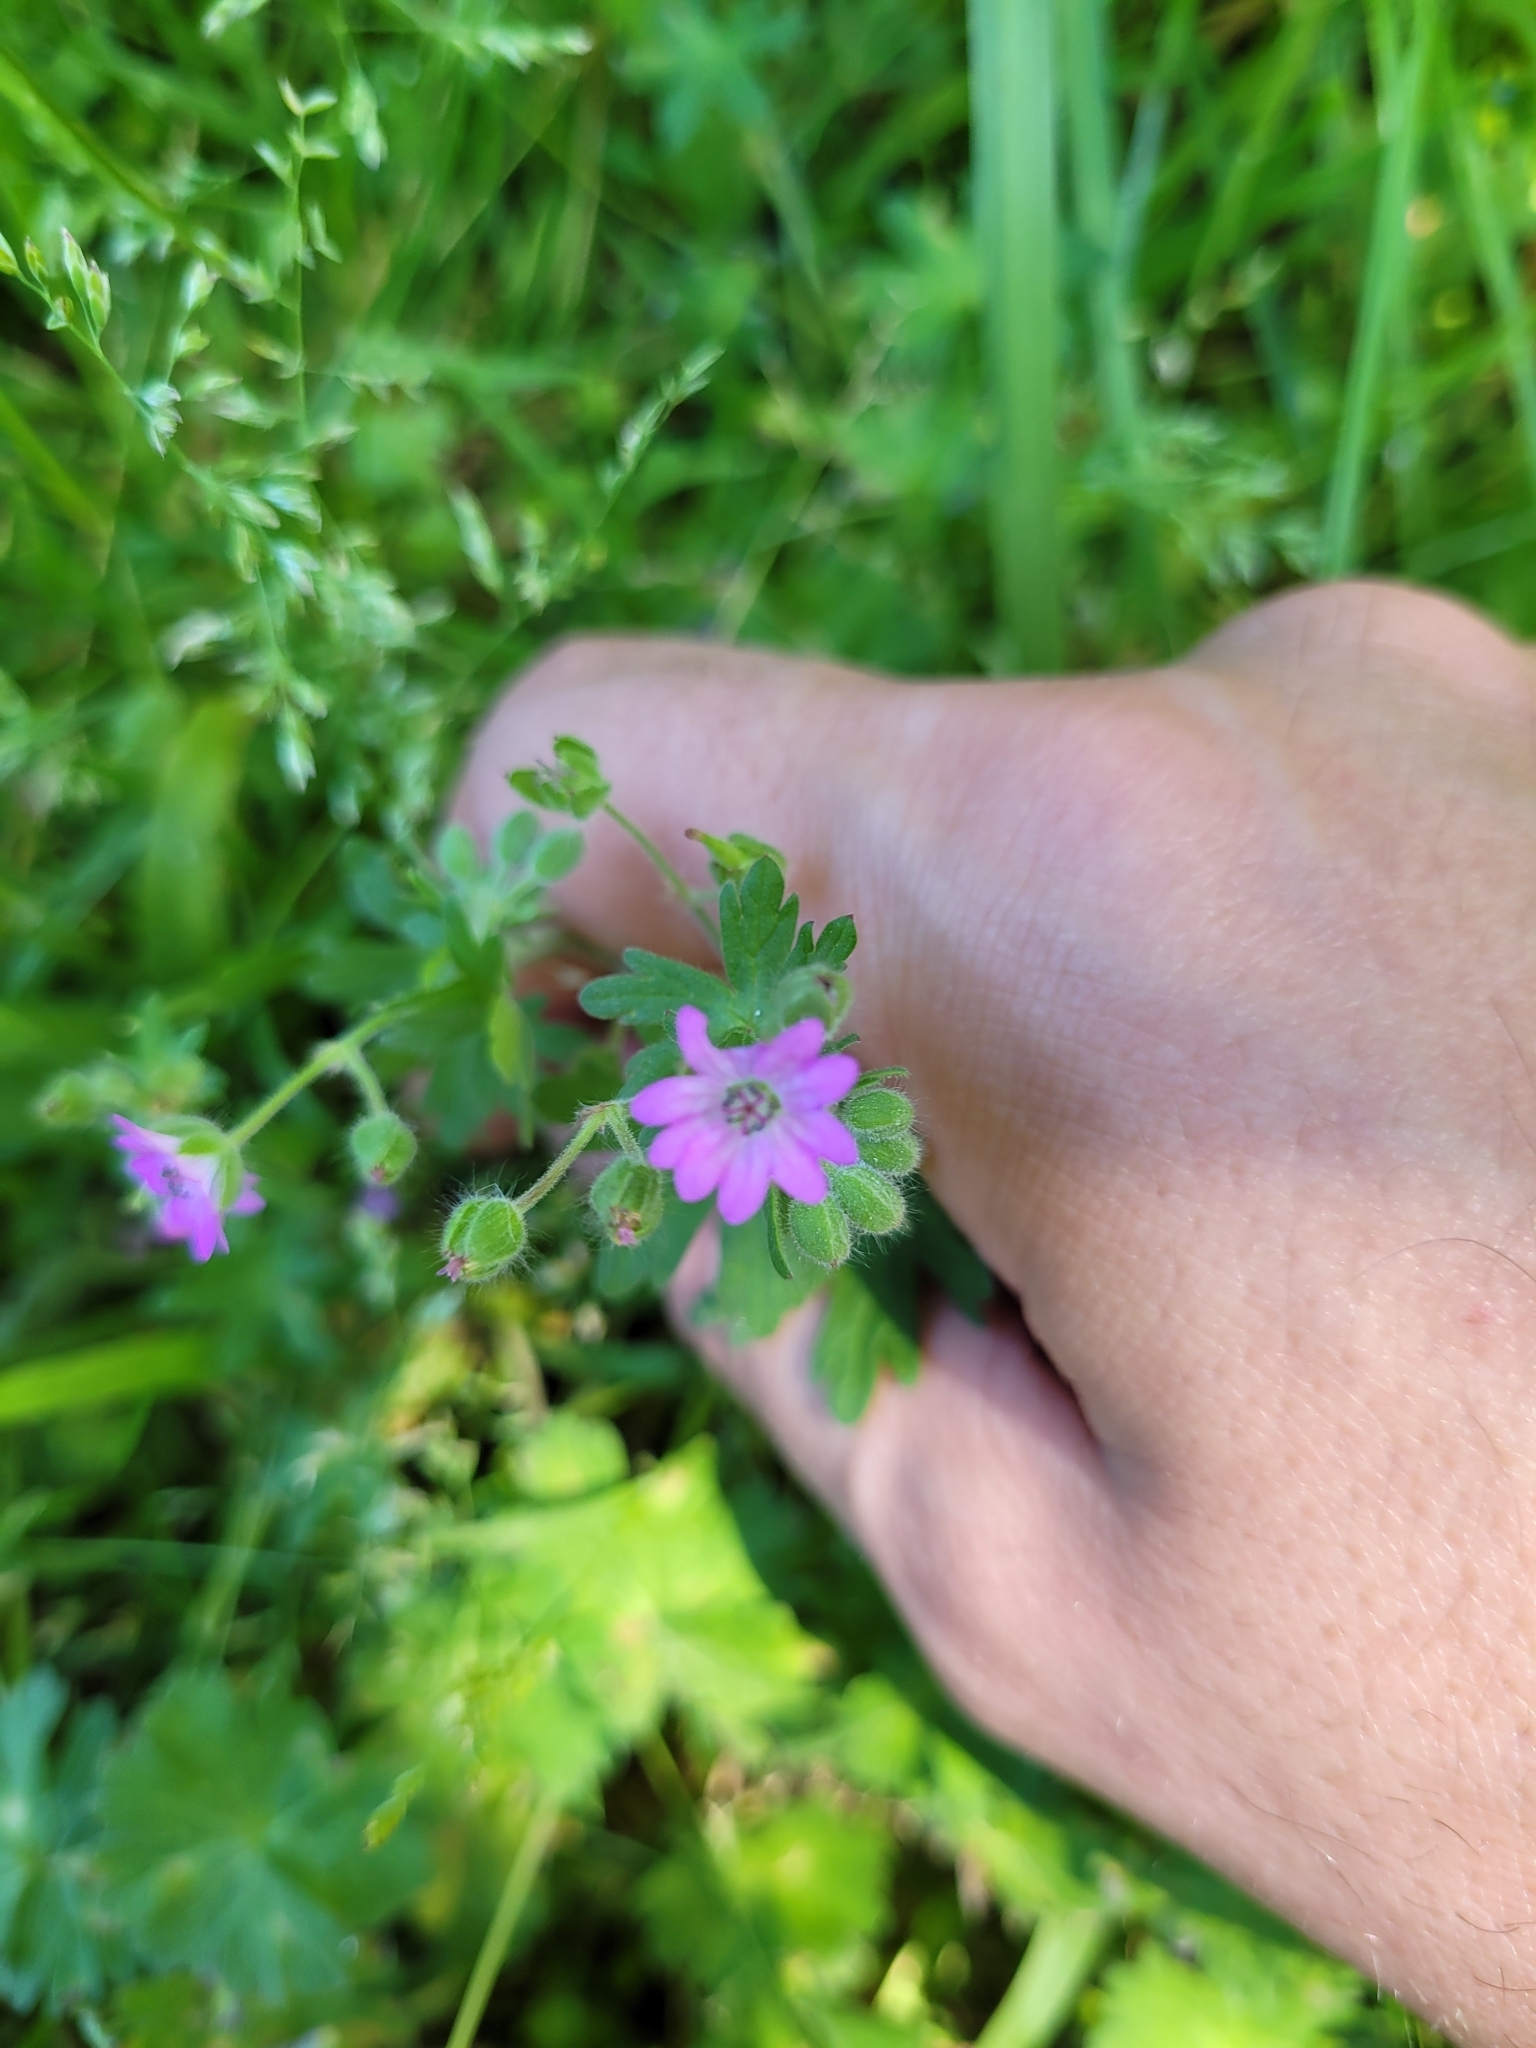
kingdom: Plantae
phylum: Tracheophyta
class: Magnoliopsida
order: Geraniales
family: Geraniaceae
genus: Geranium
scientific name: Geranium molle
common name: Dove's-foot crane's-bill
